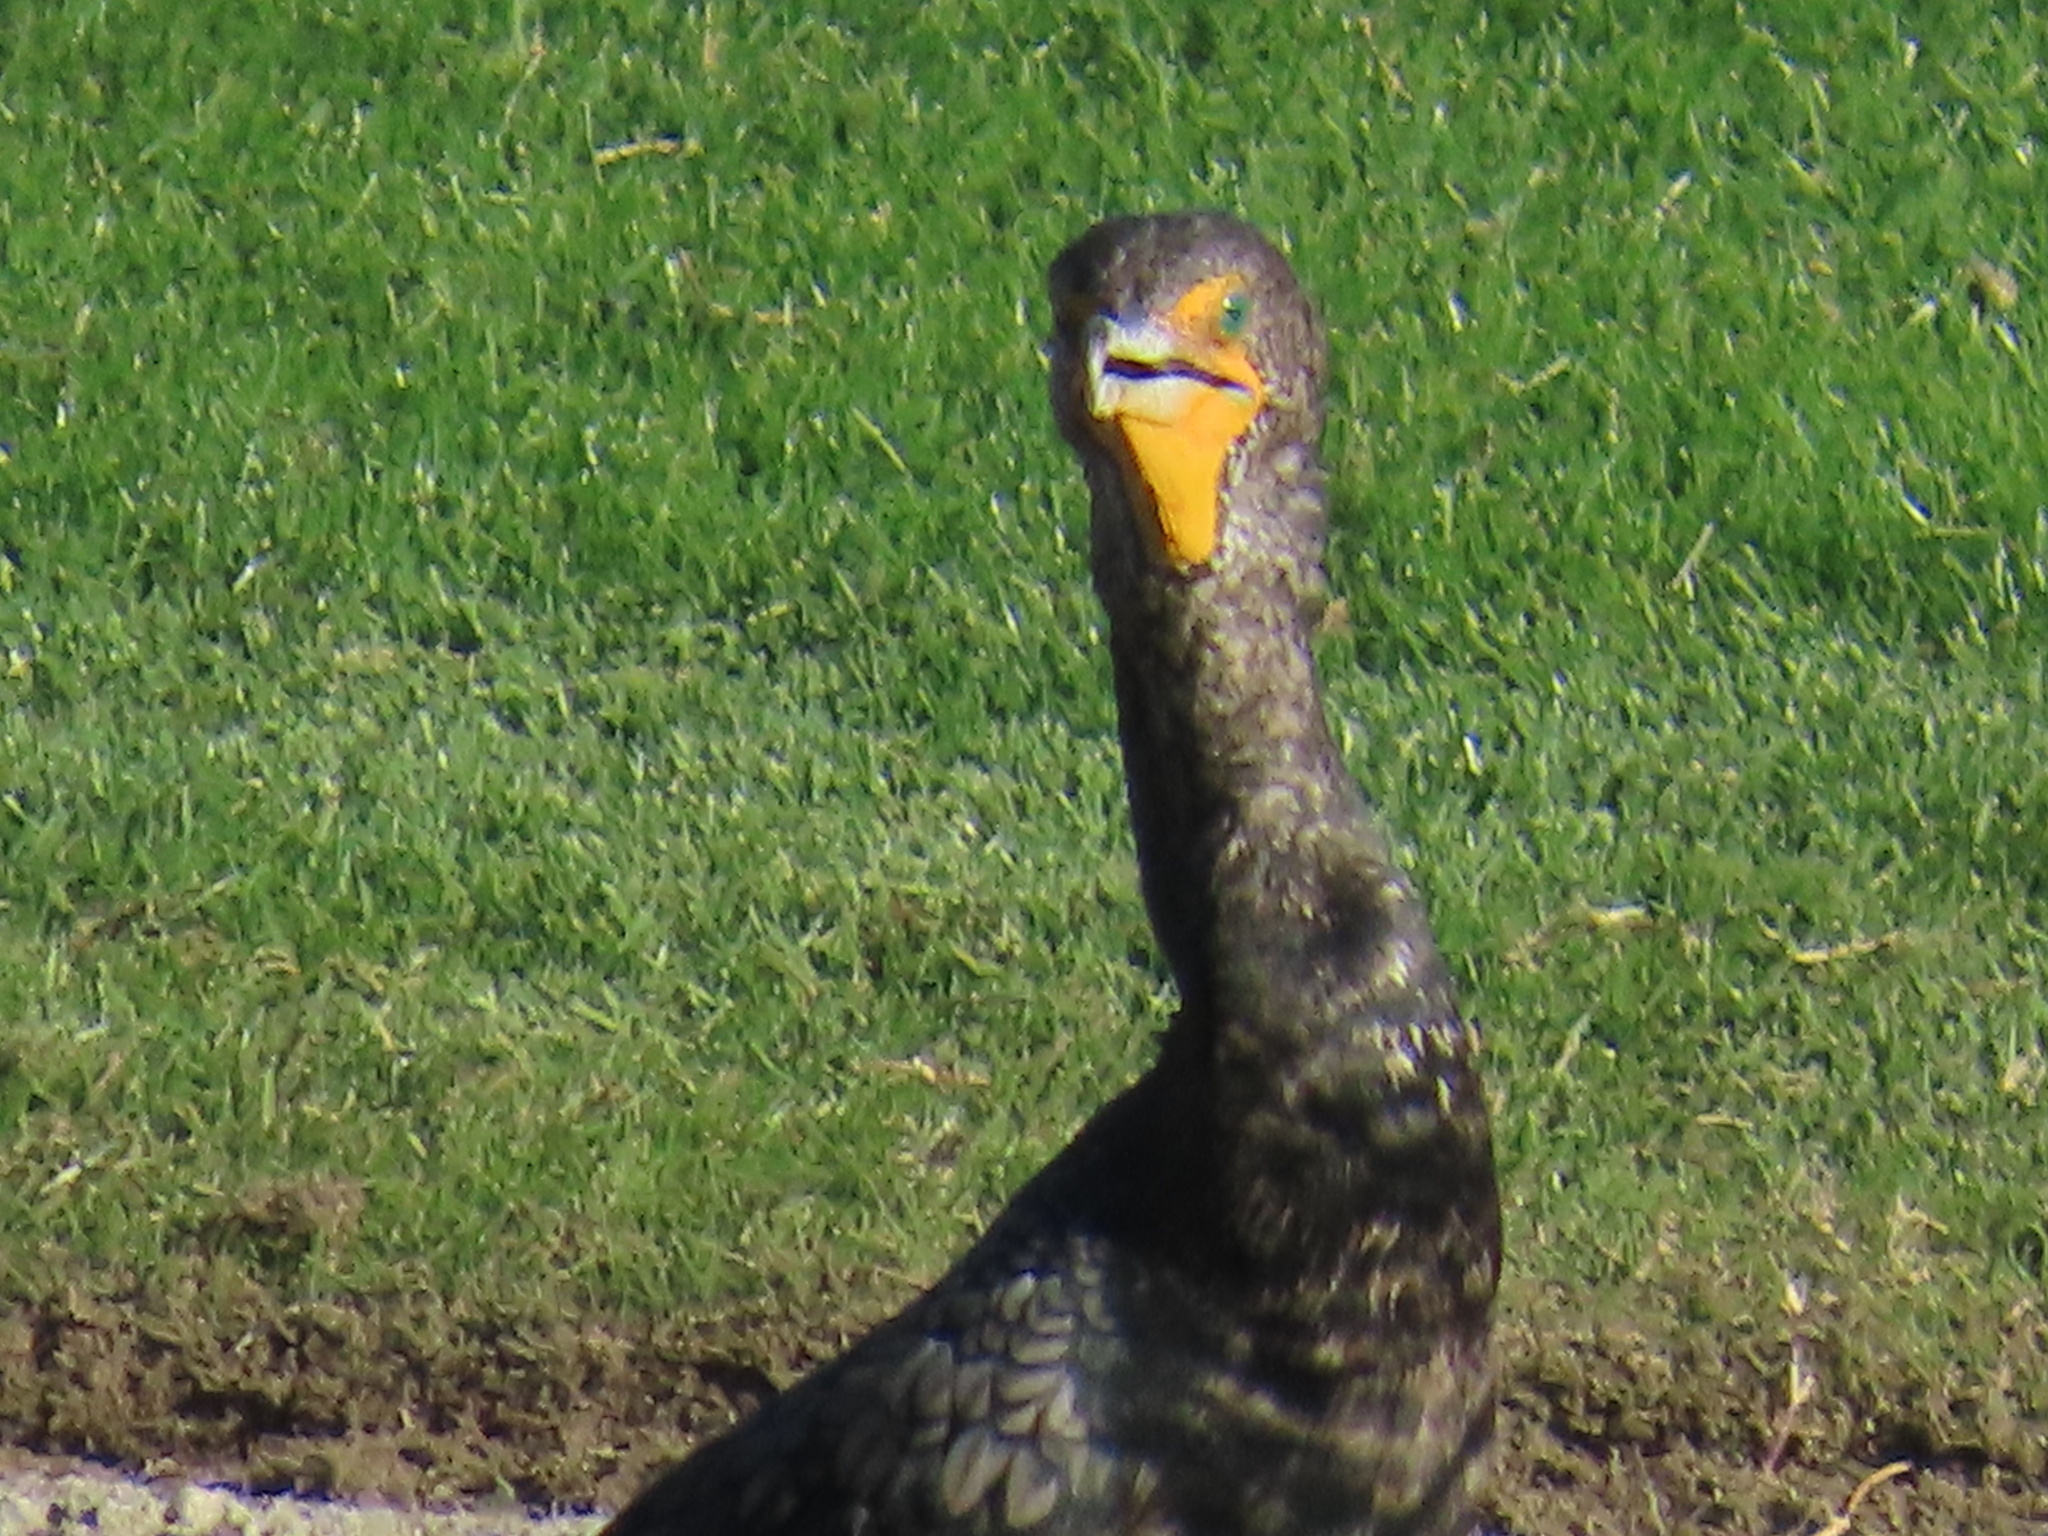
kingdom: Animalia
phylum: Chordata
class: Aves
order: Suliformes
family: Phalacrocoracidae
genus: Phalacrocorax
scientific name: Phalacrocorax auritus
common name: Double-crested cormorant
